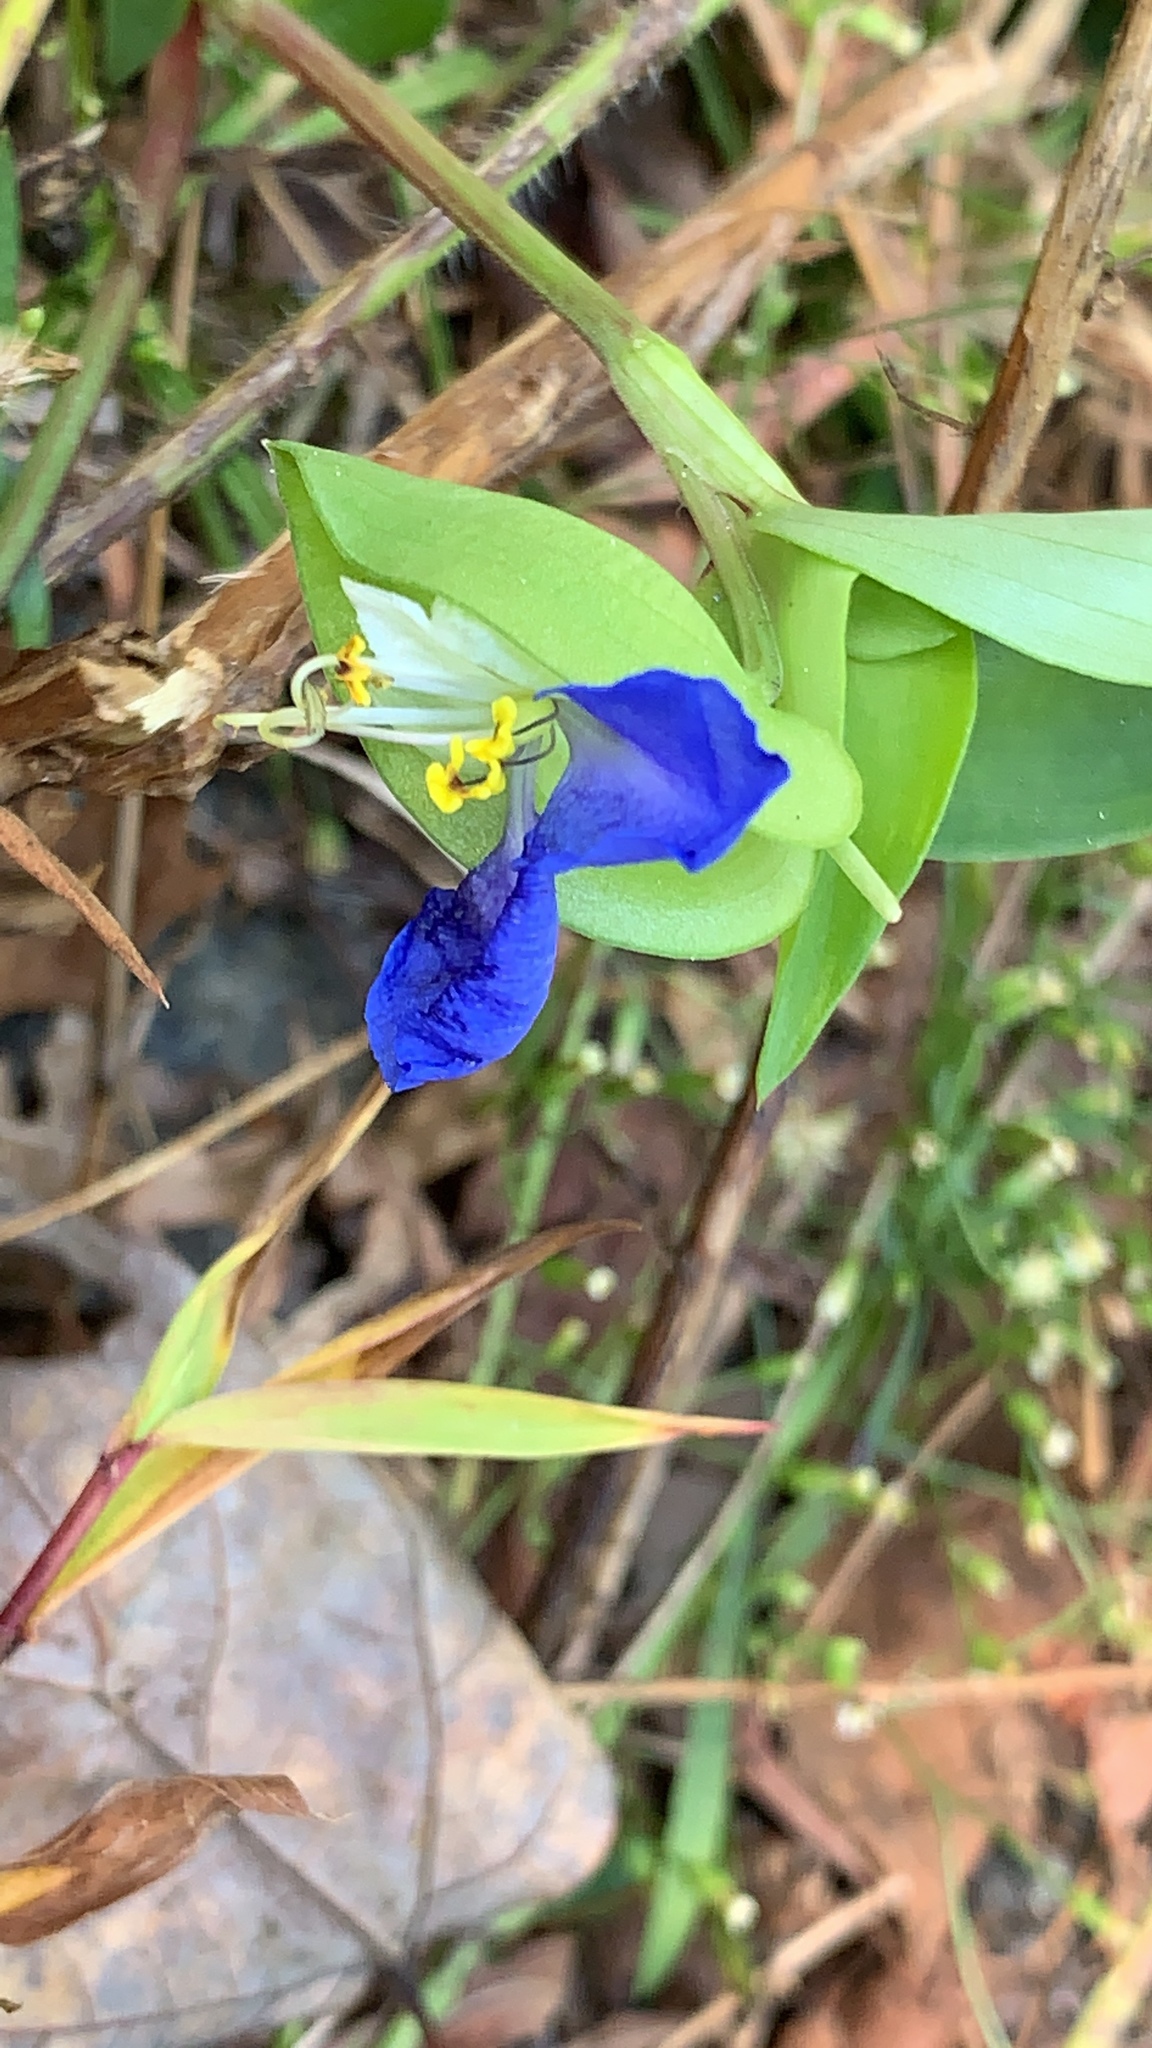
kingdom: Plantae
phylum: Tracheophyta
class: Liliopsida
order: Commelinales
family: Commelinaceae
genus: Commelina
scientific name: Commelina communis
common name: Asiatic dayflower
